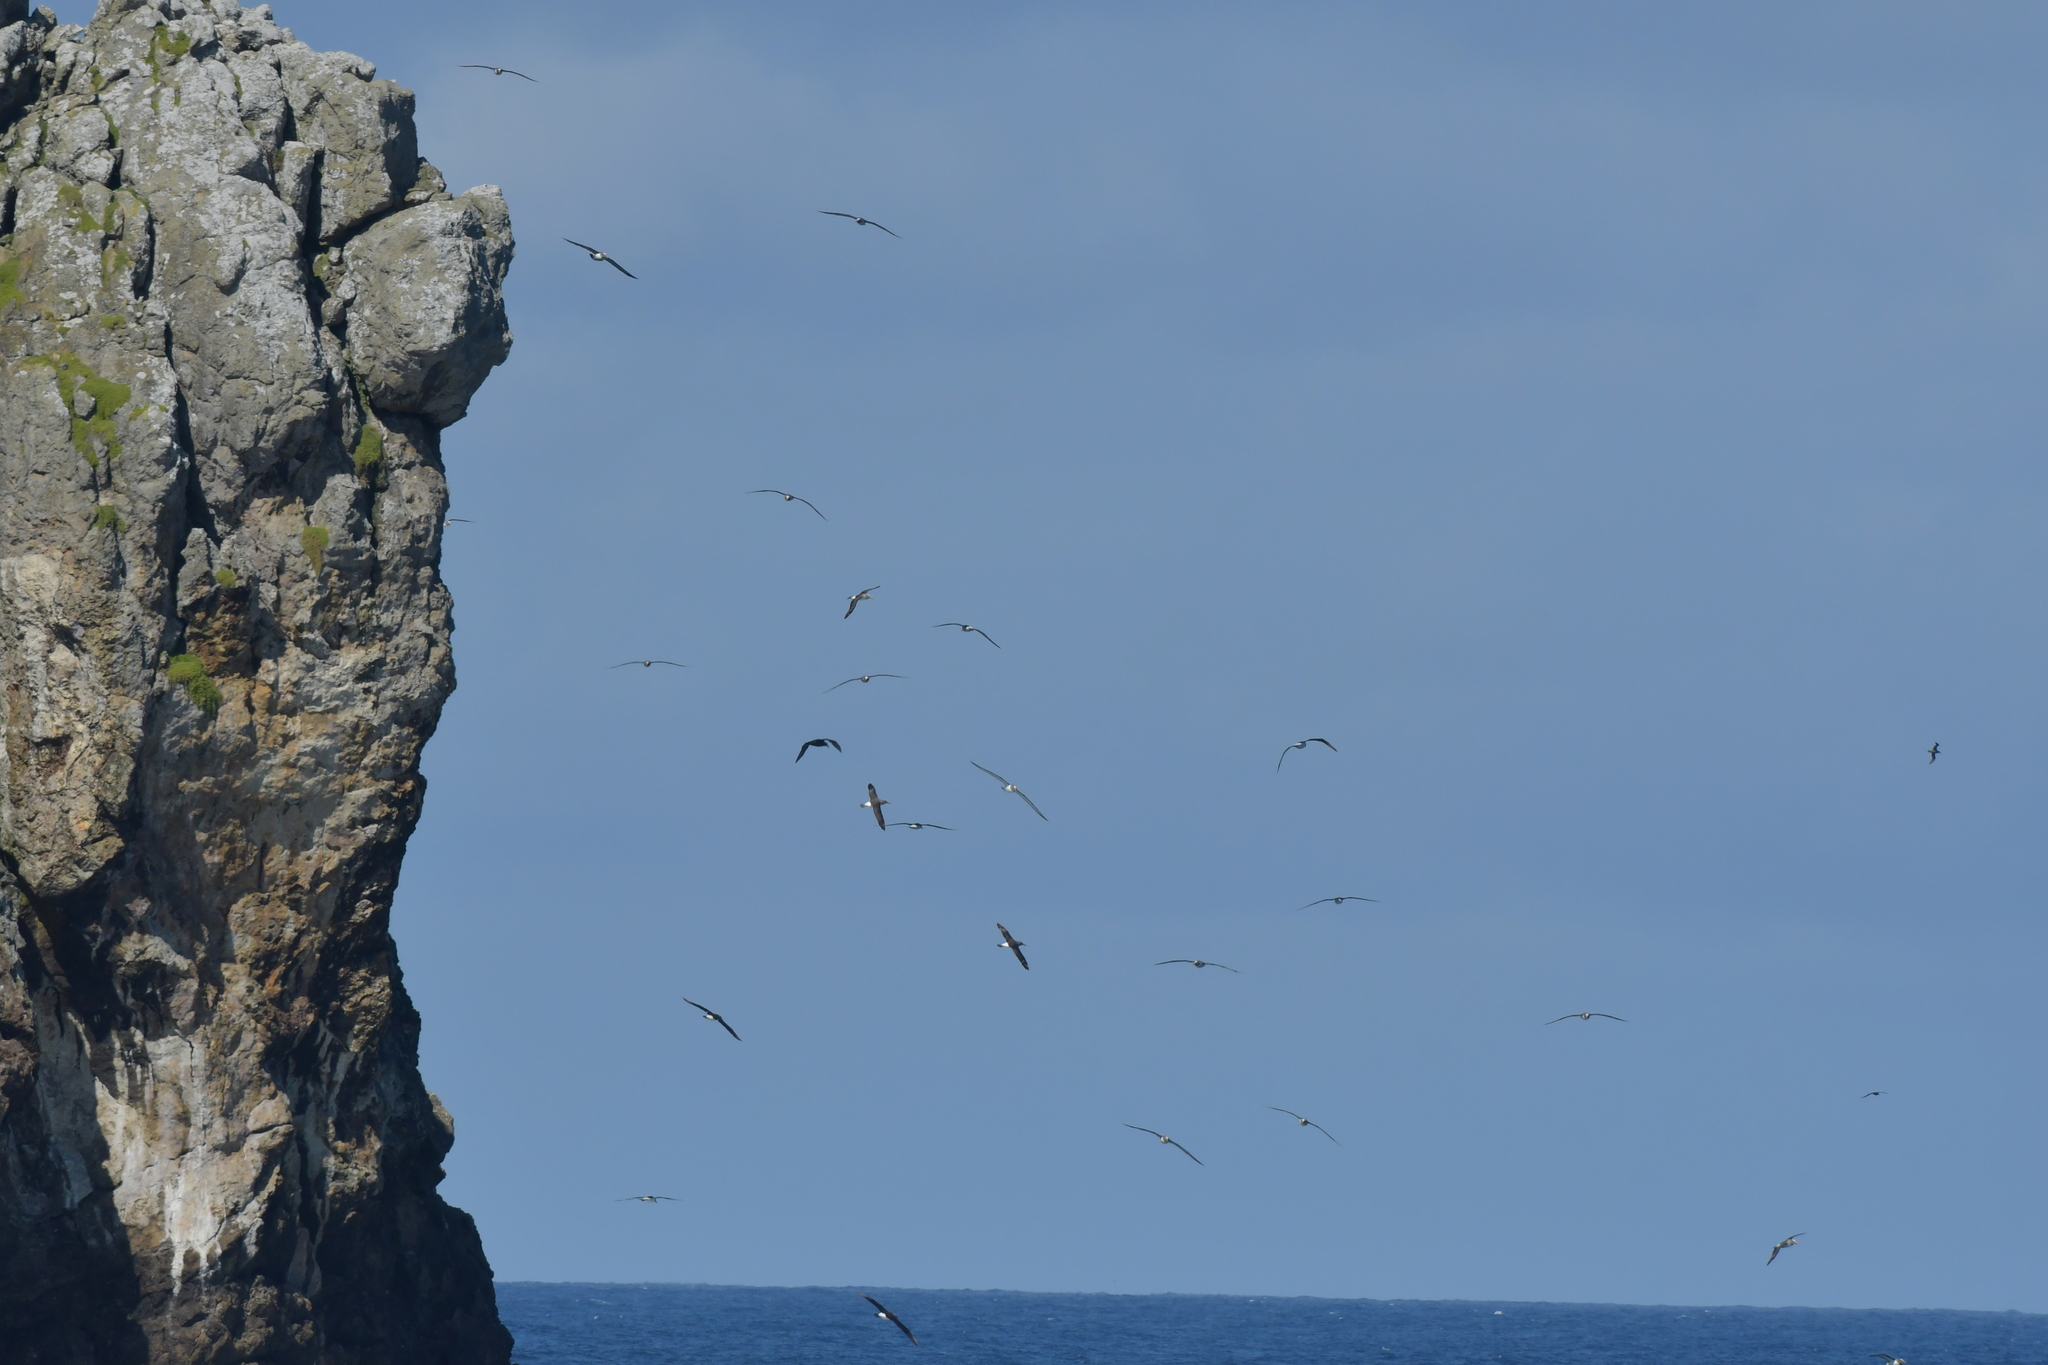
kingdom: Animalia
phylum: Chordata
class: Aves
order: Procellariiformes
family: Diomedeidae
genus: Thalassarche
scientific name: Thalassarche bulleri
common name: Buller's albatross
